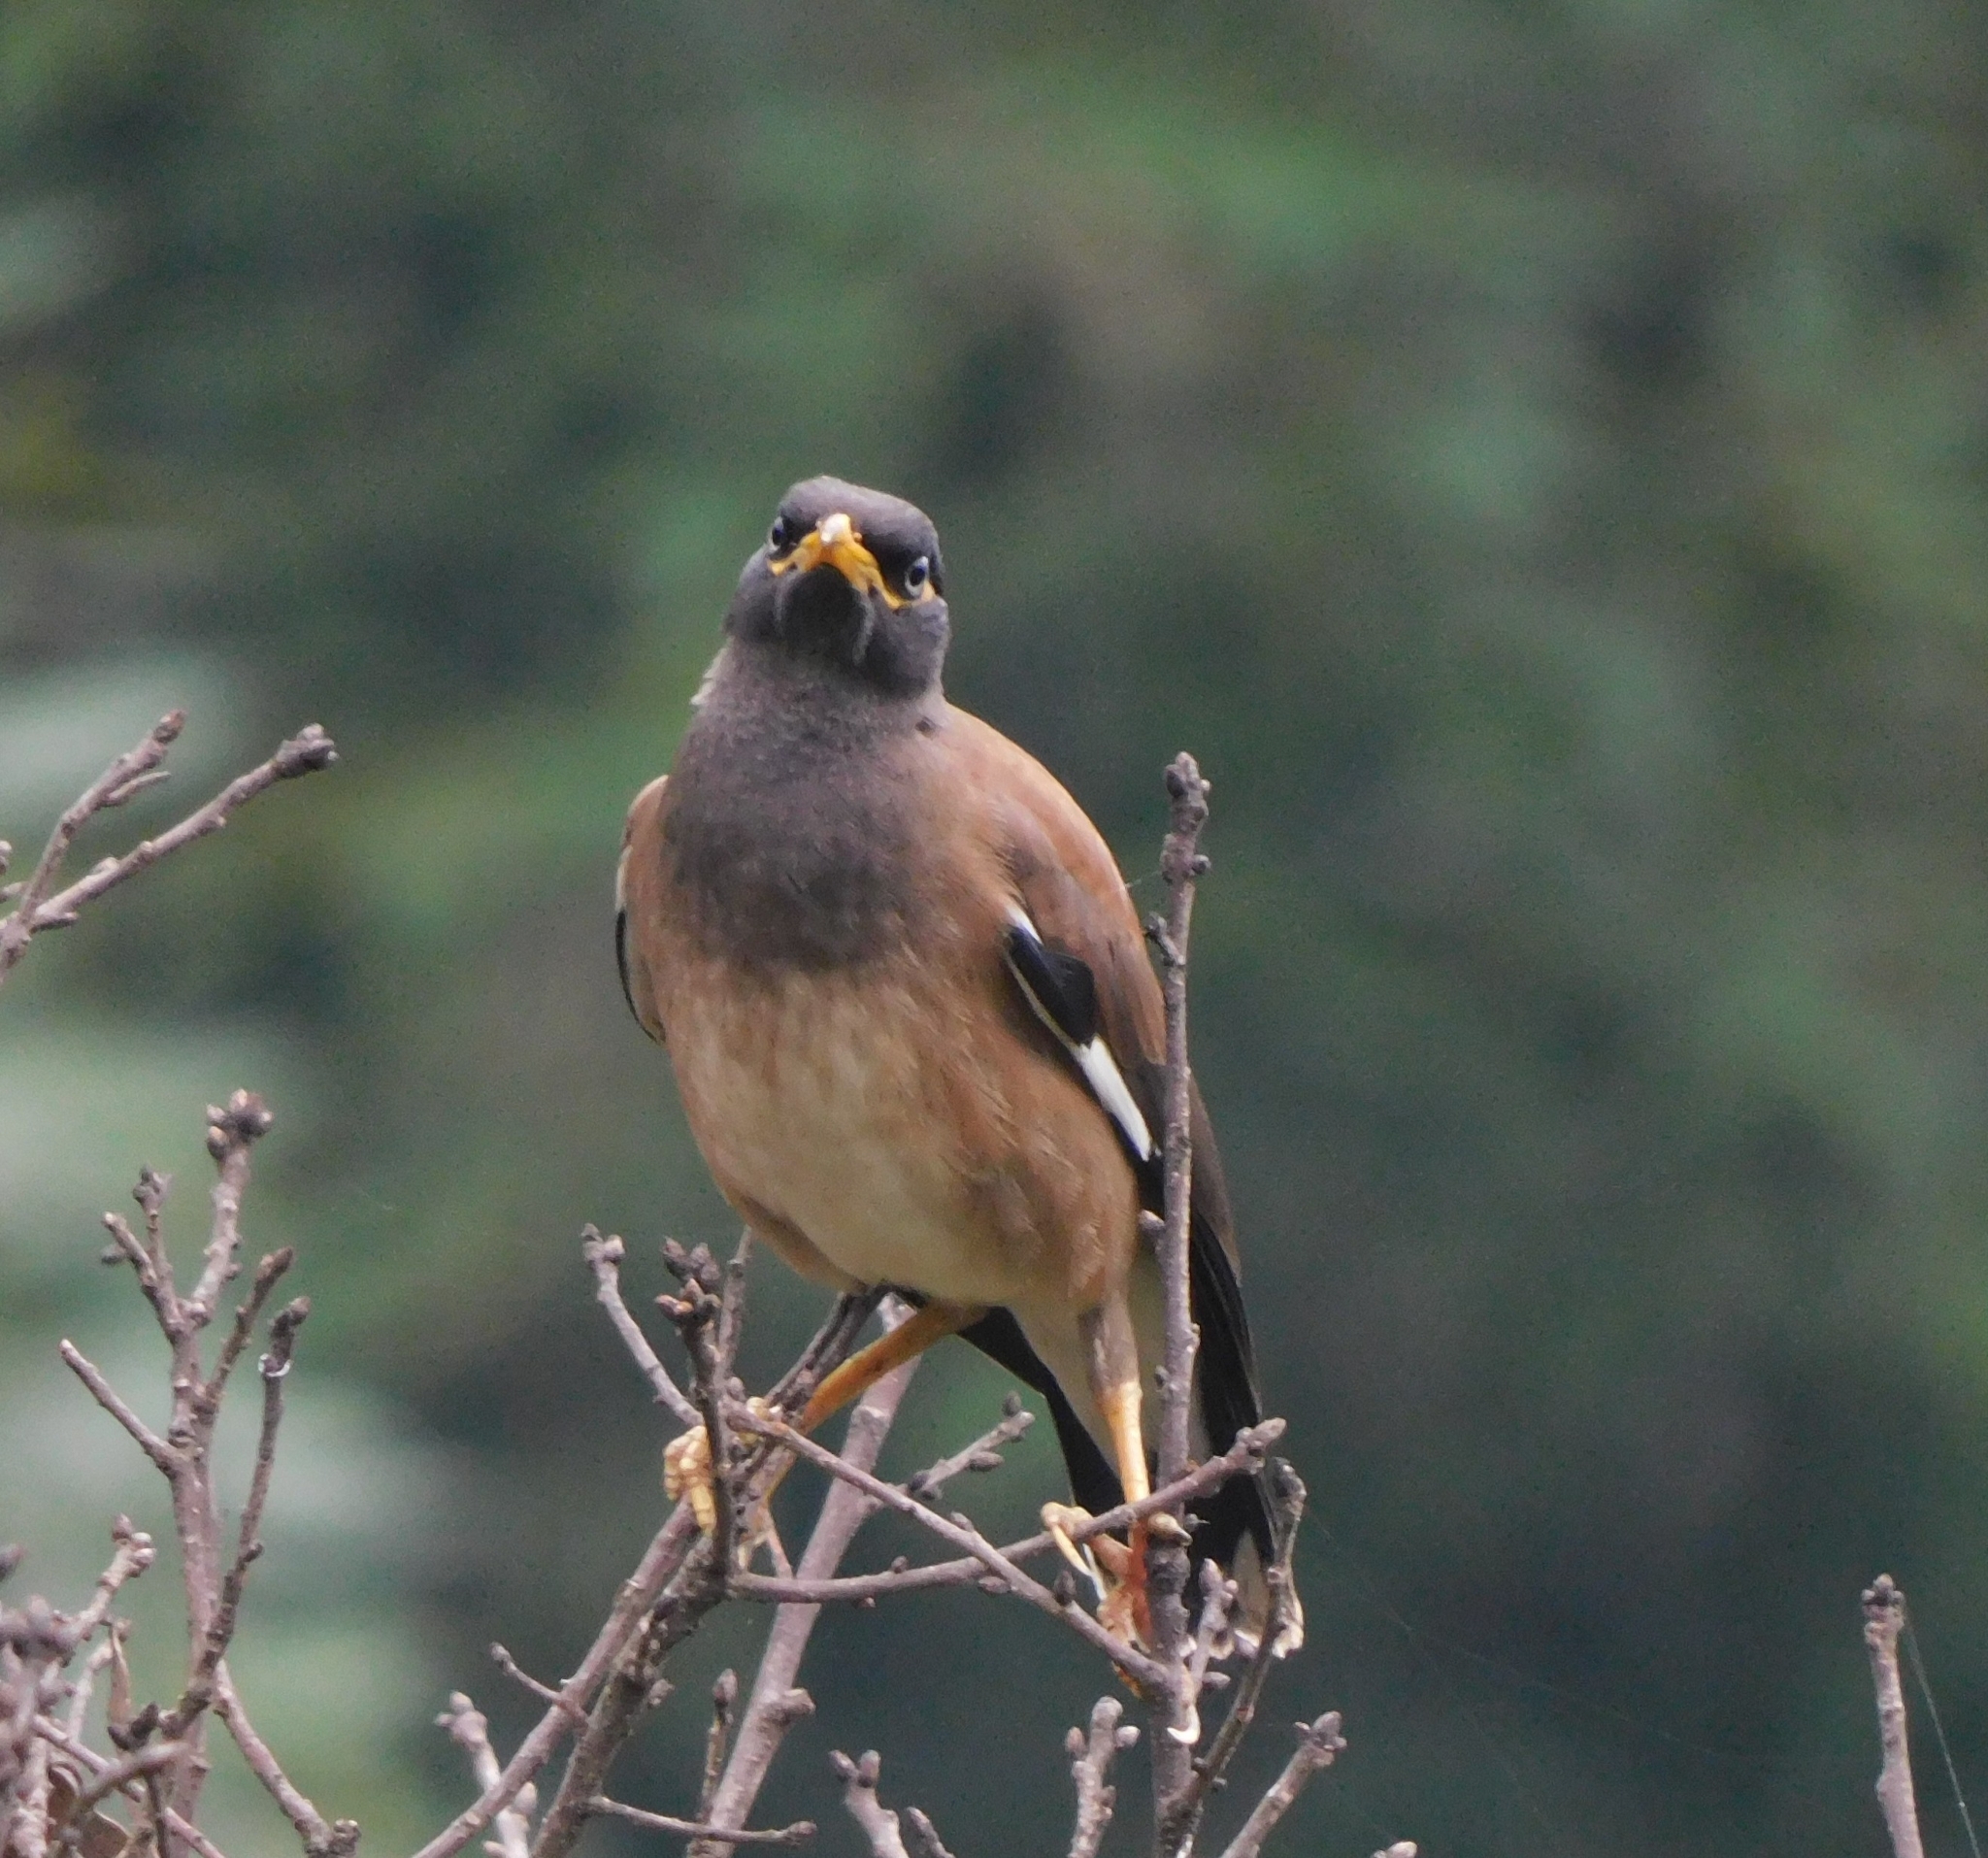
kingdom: Animalia
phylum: Chordata
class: Aves
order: Passeriformes
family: Sturnidae
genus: Acridotheres
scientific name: Acridotheres tristis
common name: Common myna
